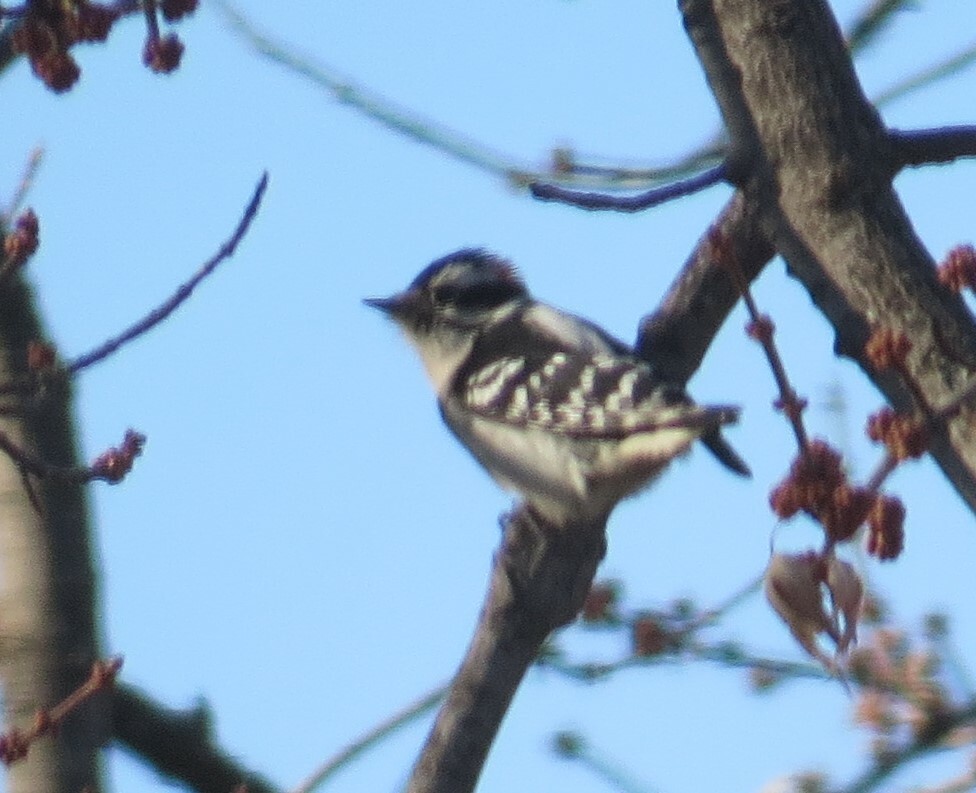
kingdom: Animalia
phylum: Chordata
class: Aves
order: Piciformes
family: Picidae
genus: Dryobates
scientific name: Dryobates pubescens
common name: Downy woodpecker
